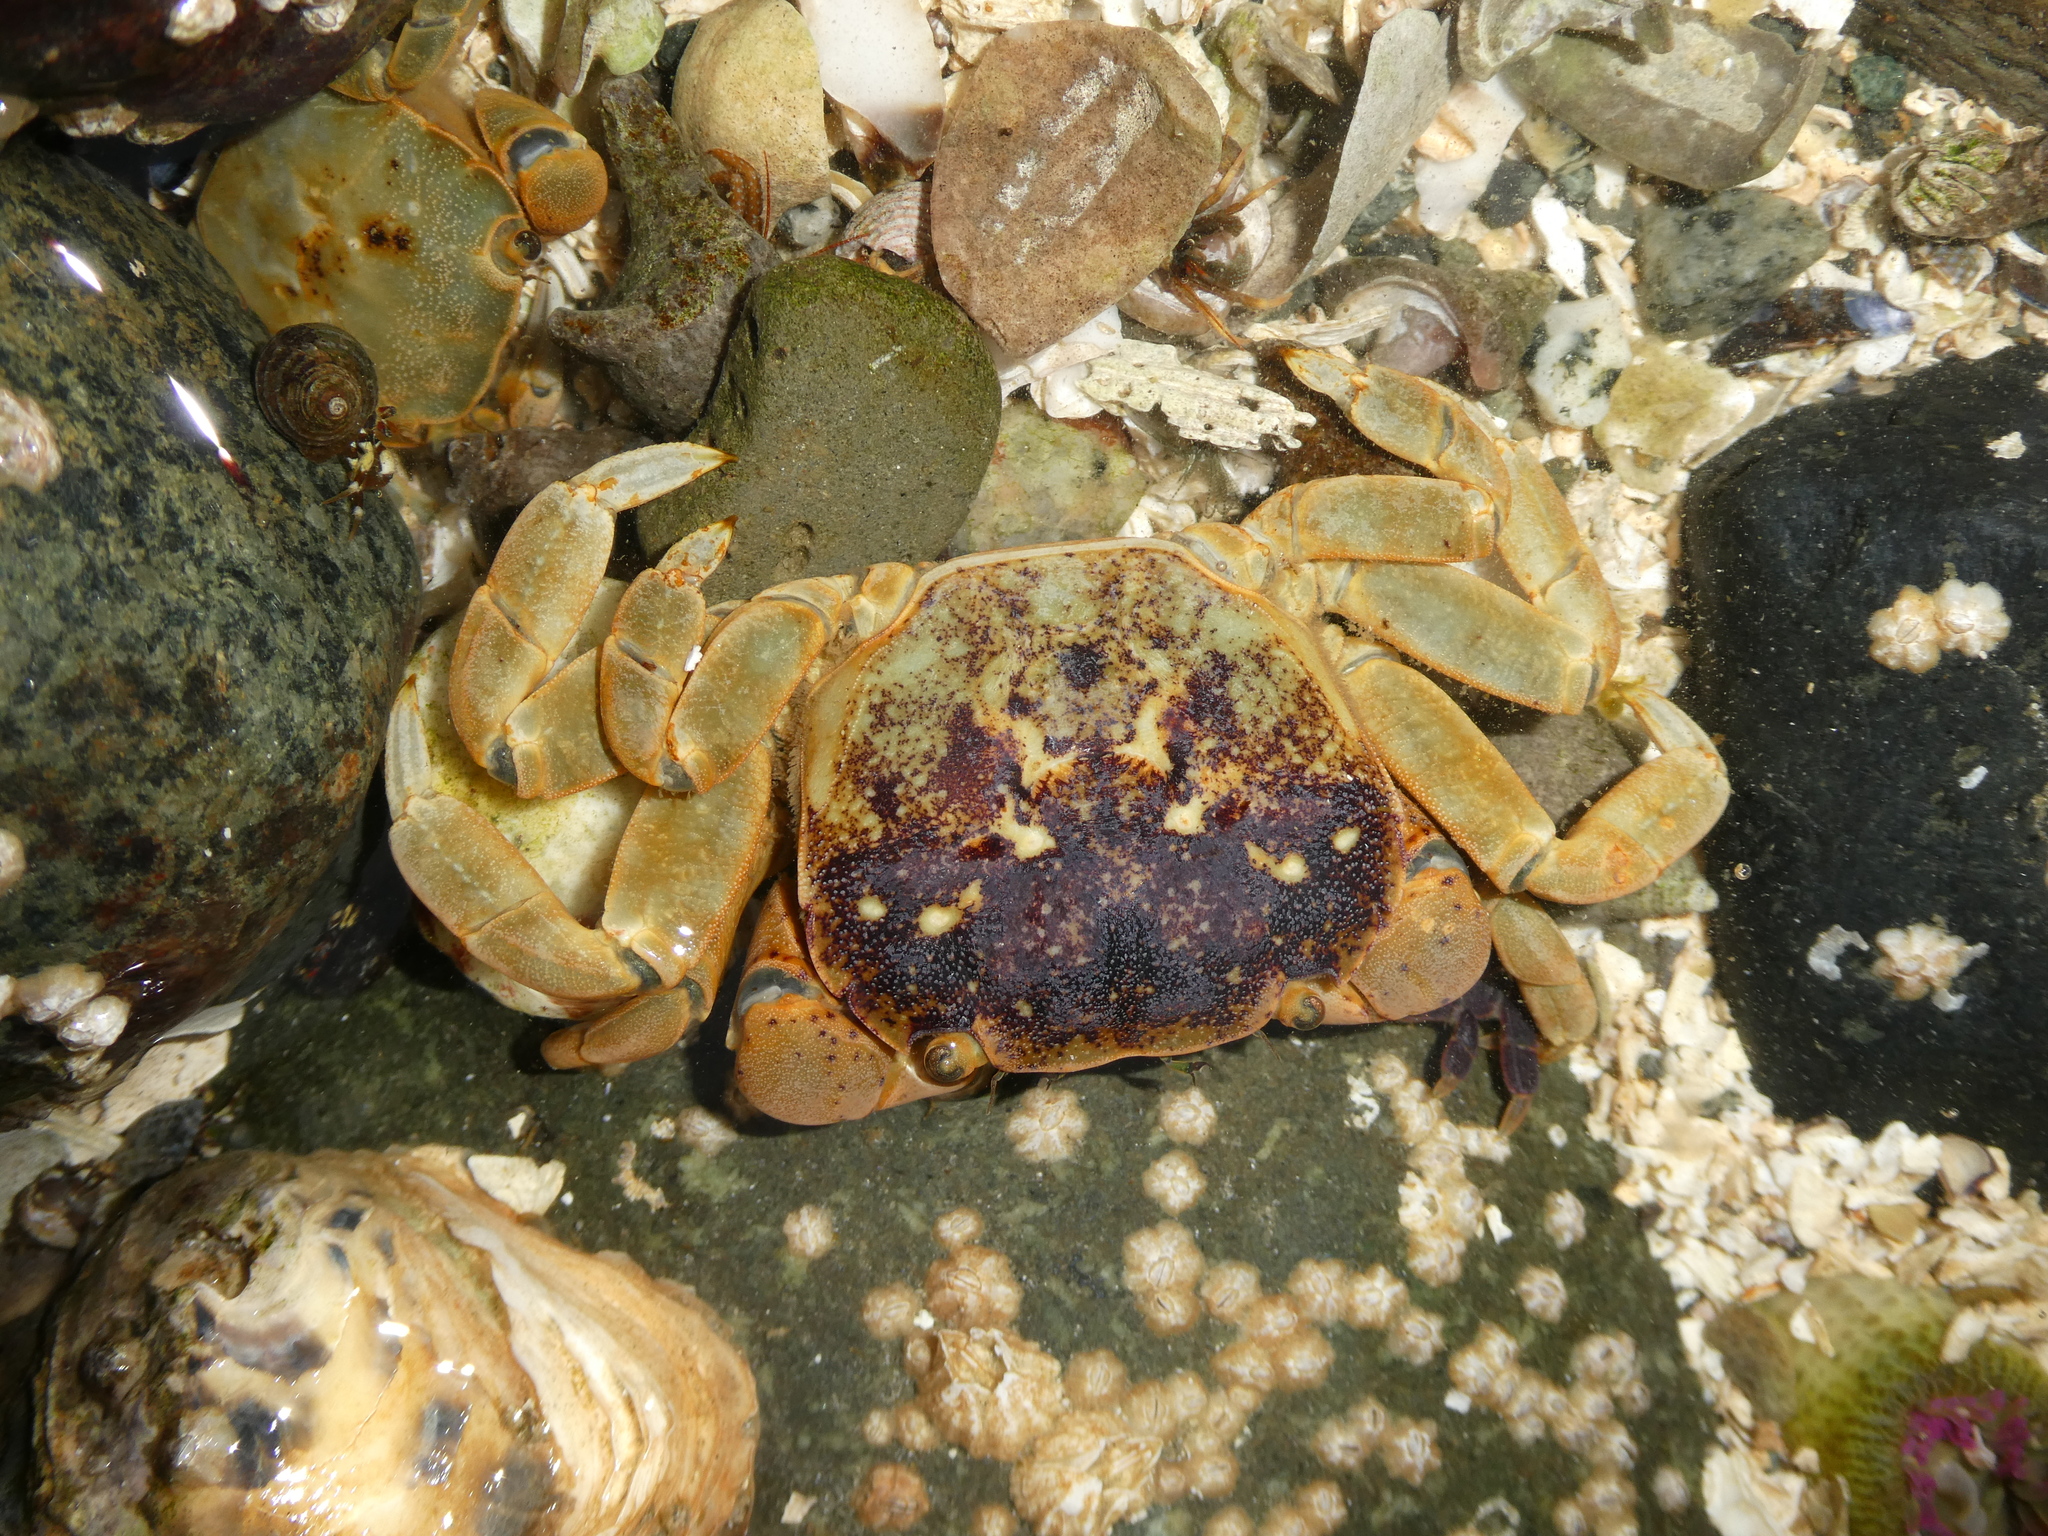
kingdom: Animalia
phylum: Arthropoda
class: Malacostraca
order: Decapoda
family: Varunidae
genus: Hemigrapsus
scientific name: Hemigrapsus nudus
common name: Purple shore crab
